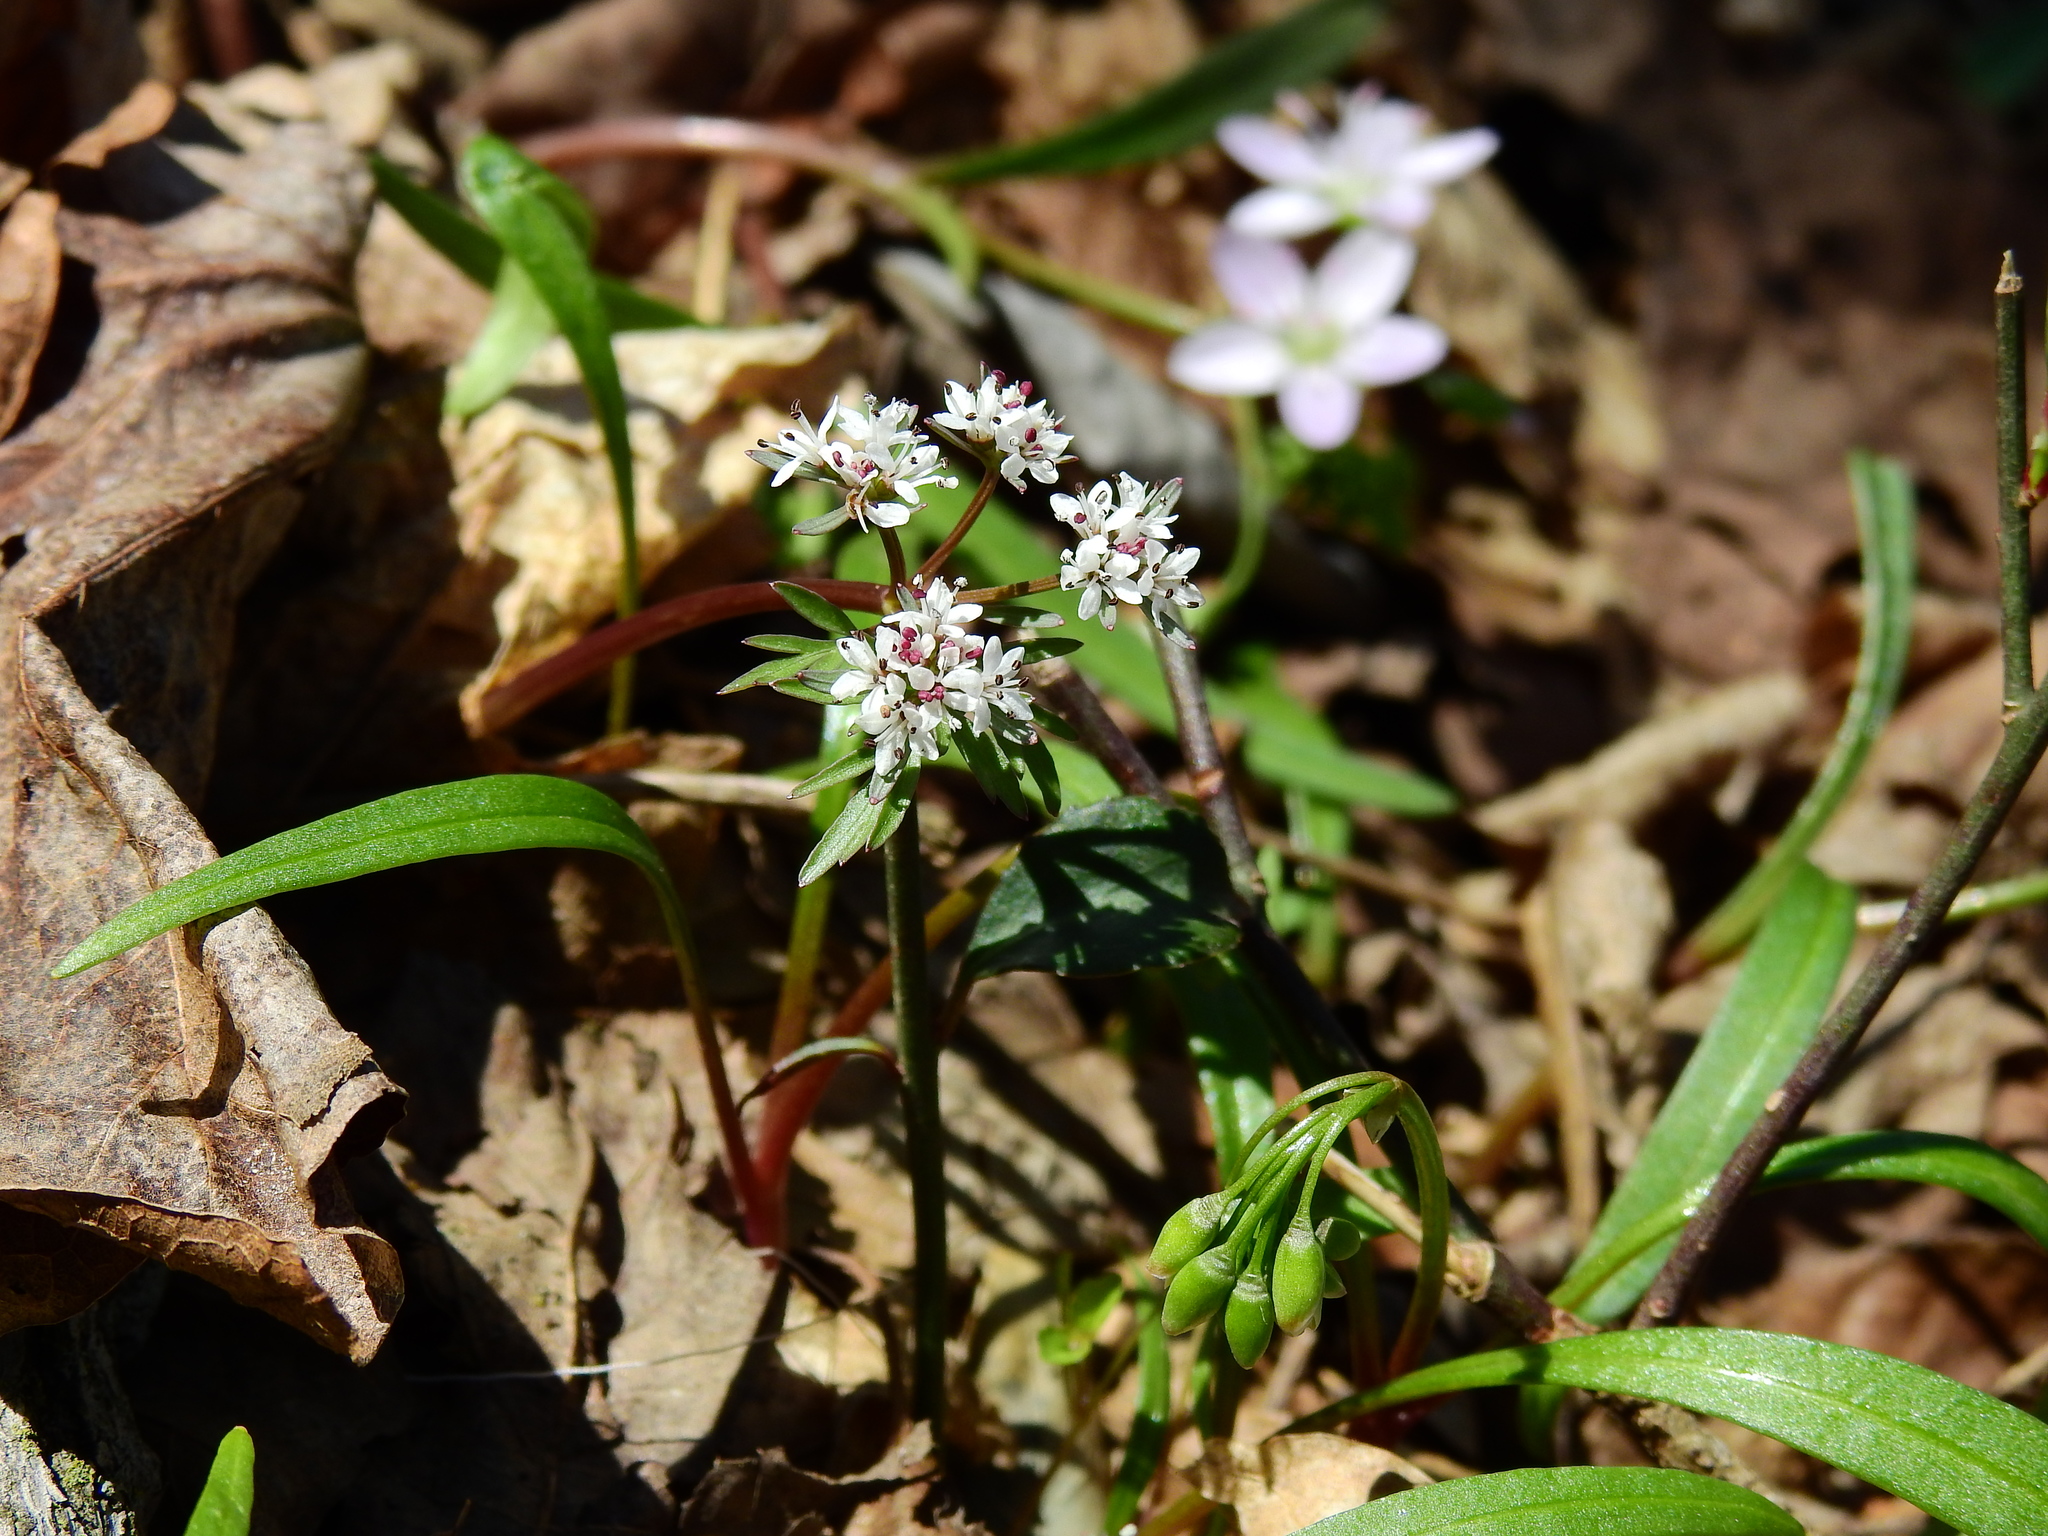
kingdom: Plantae
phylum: Tracheophyta
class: Magnoliopsida
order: Apiales
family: Apiaceae
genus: Erigenia
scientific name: Erigenia bulbosa
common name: Pepper-and-salt
